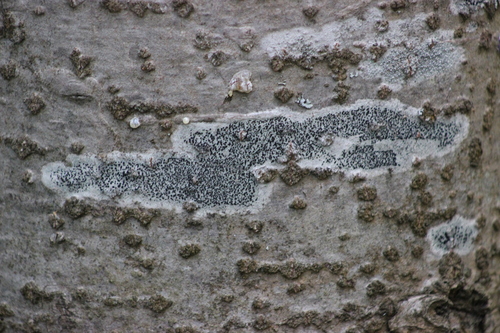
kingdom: Fungi
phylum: Ascomycota
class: Lecanoromycetes
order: Caliciales
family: Caliciaceae
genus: Buellia
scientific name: Buellia
